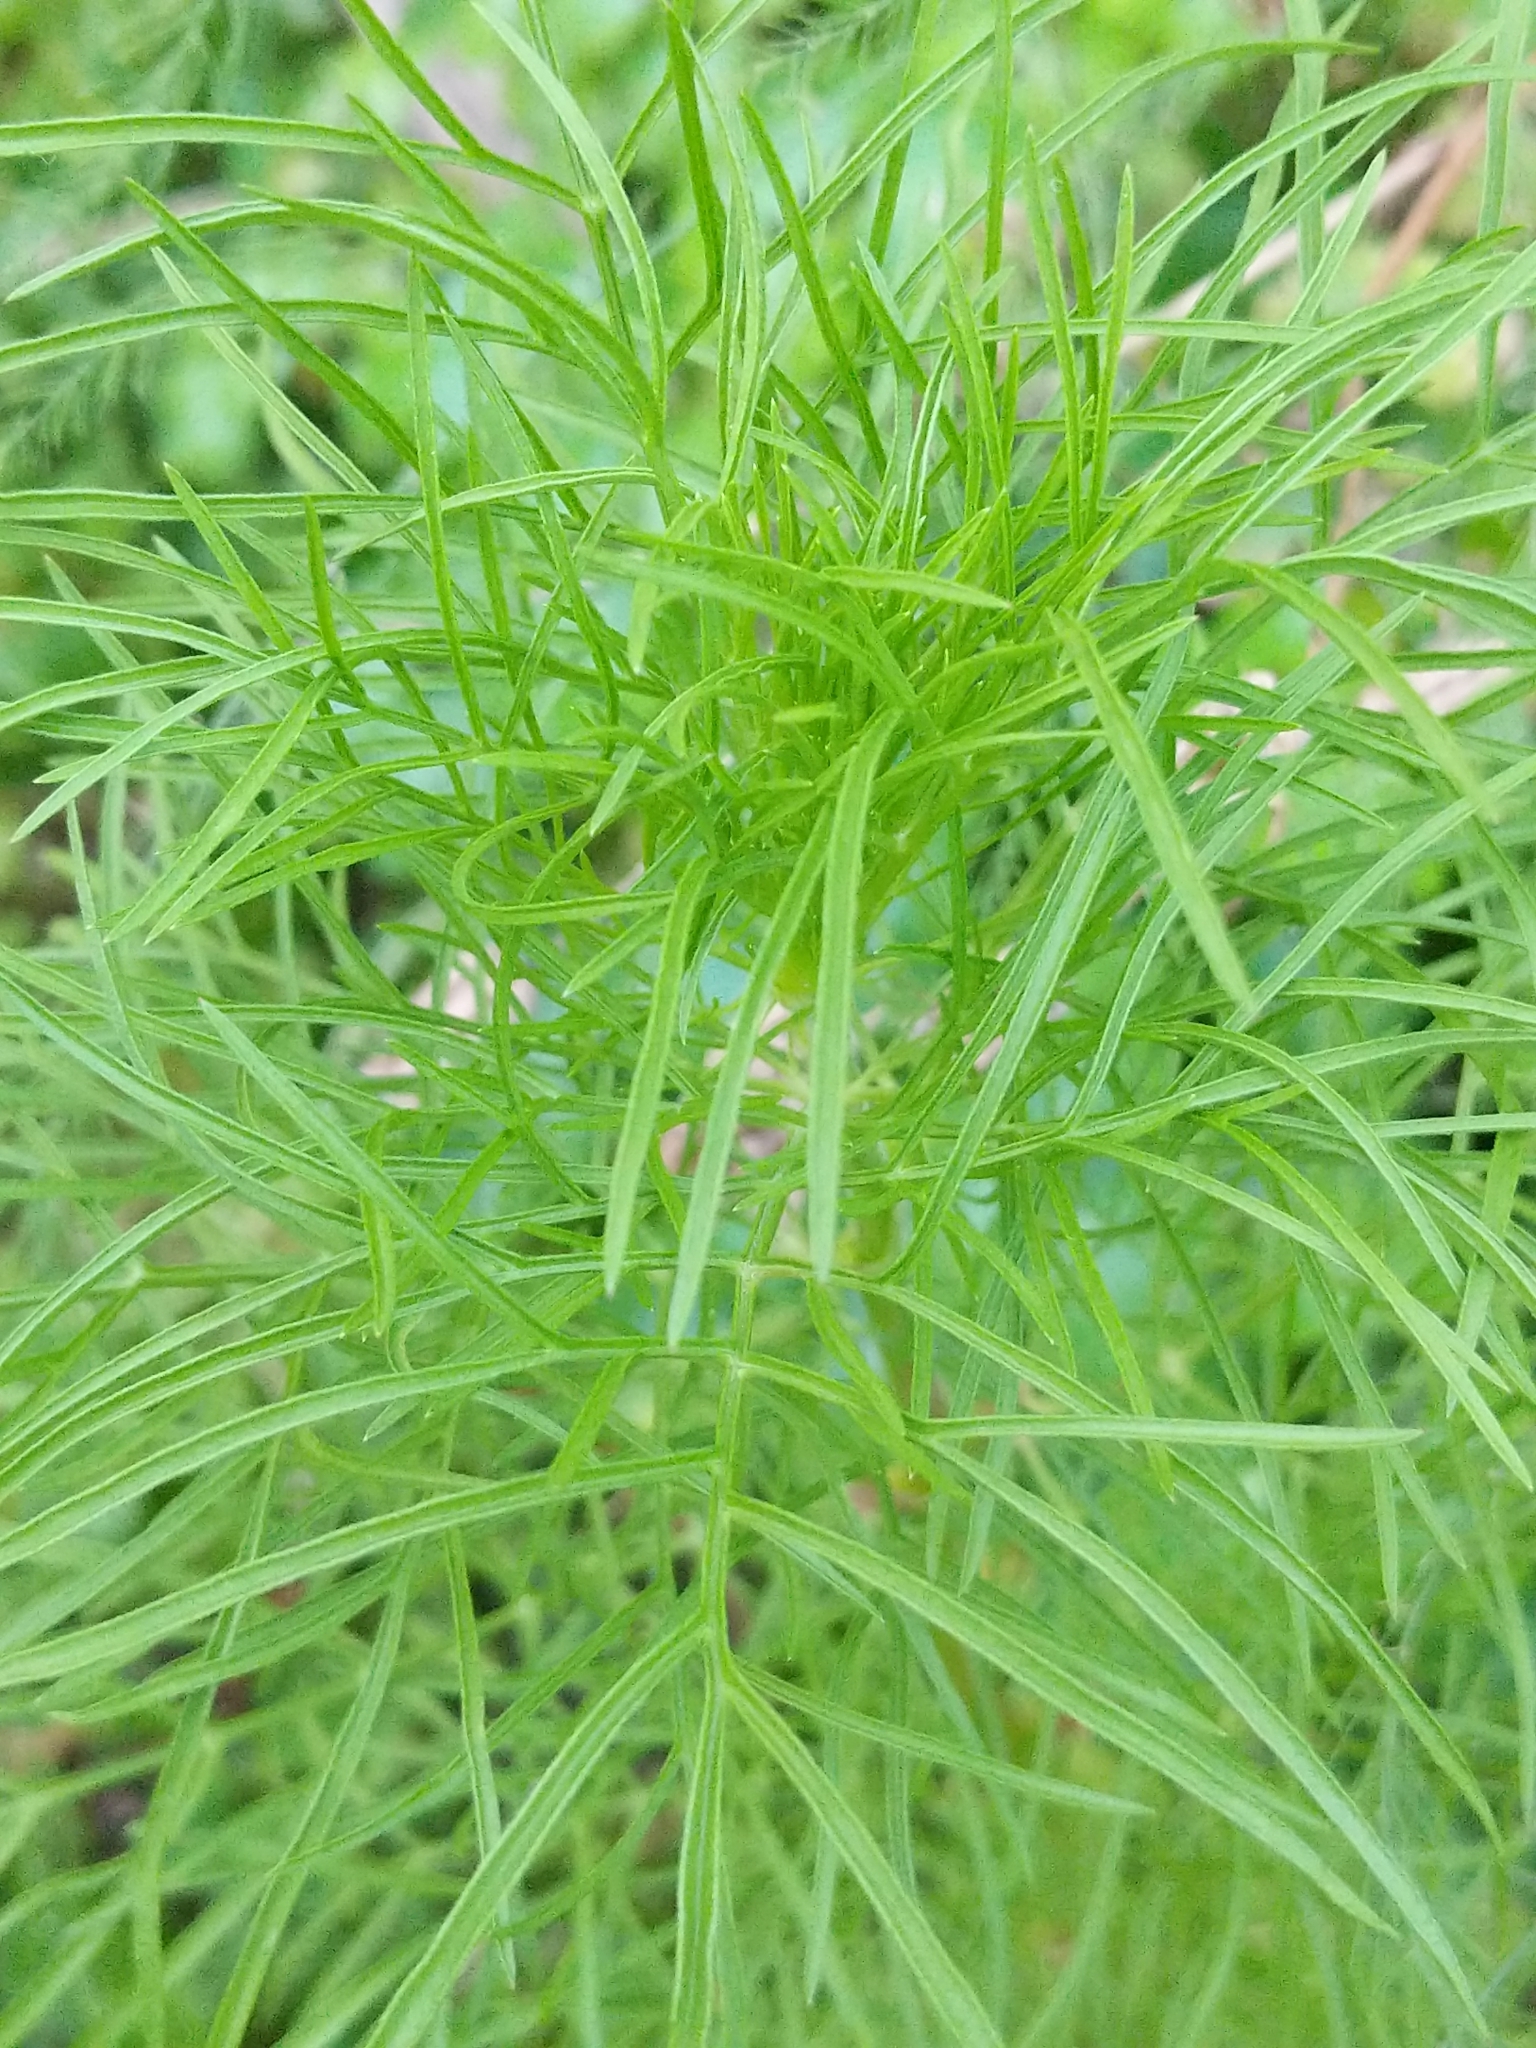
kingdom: Plantae
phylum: Tracheophyta
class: Magnoliopsida
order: Asterales
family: Asteraceae
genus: Cosmos
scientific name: Cosmos bipinnatus
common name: Garden cosmos
